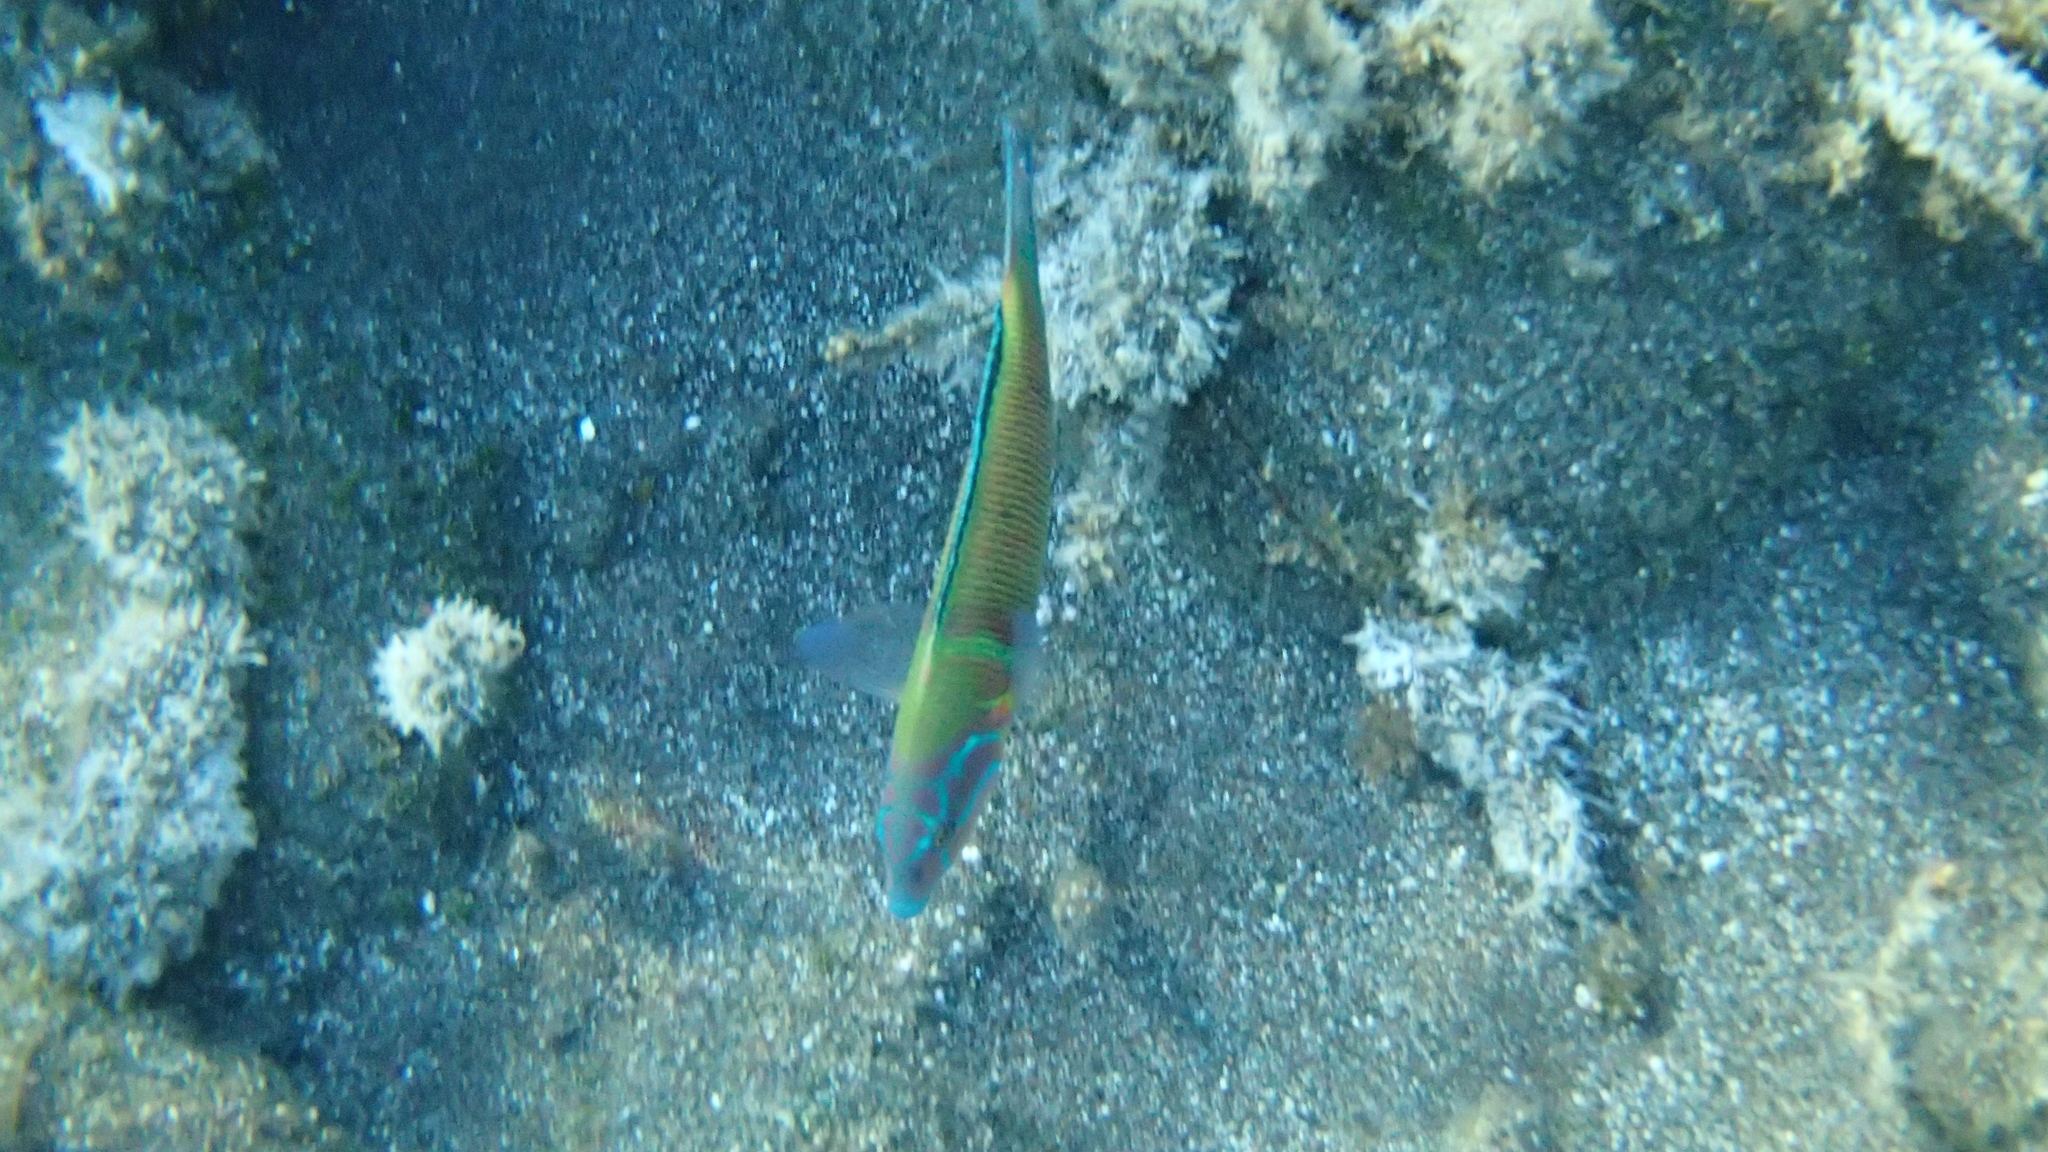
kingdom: Animalia
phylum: Chordata
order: Perciformes
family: Labridae
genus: Thalassoma
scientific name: Thalassoma pavo
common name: Ornate wrasse
